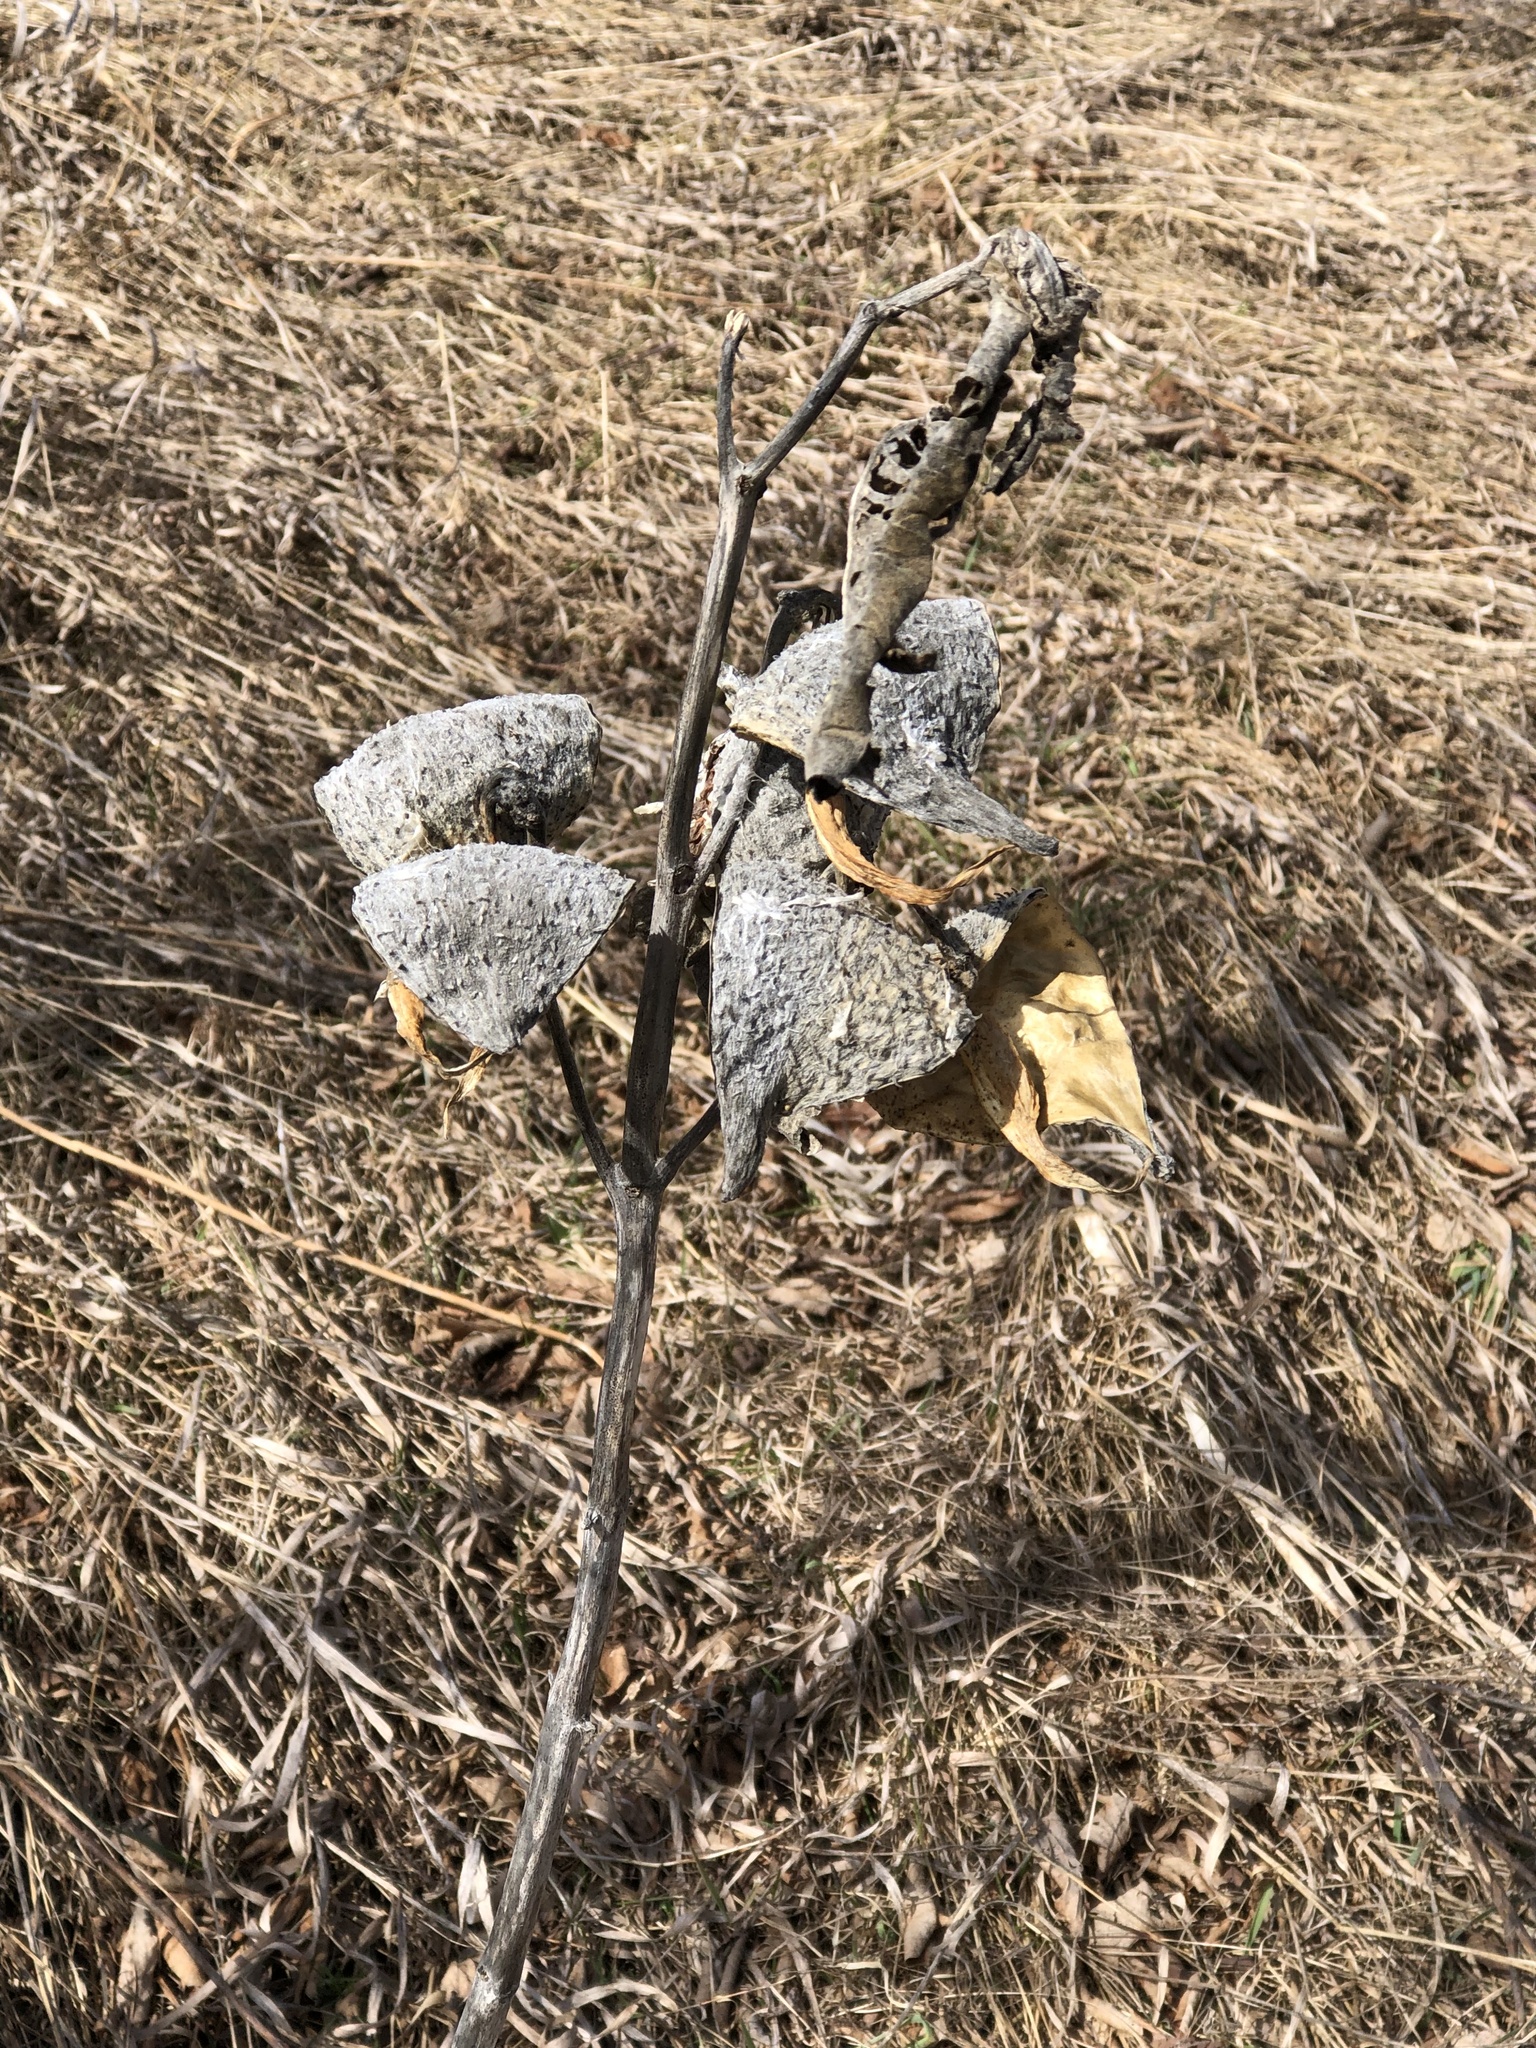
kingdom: Plantae
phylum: Tracheophyta
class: Magnoliopsida
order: Gentianales
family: Apocynaceae
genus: Asclepias
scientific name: Asclepias syriaca
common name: Common milkweed
